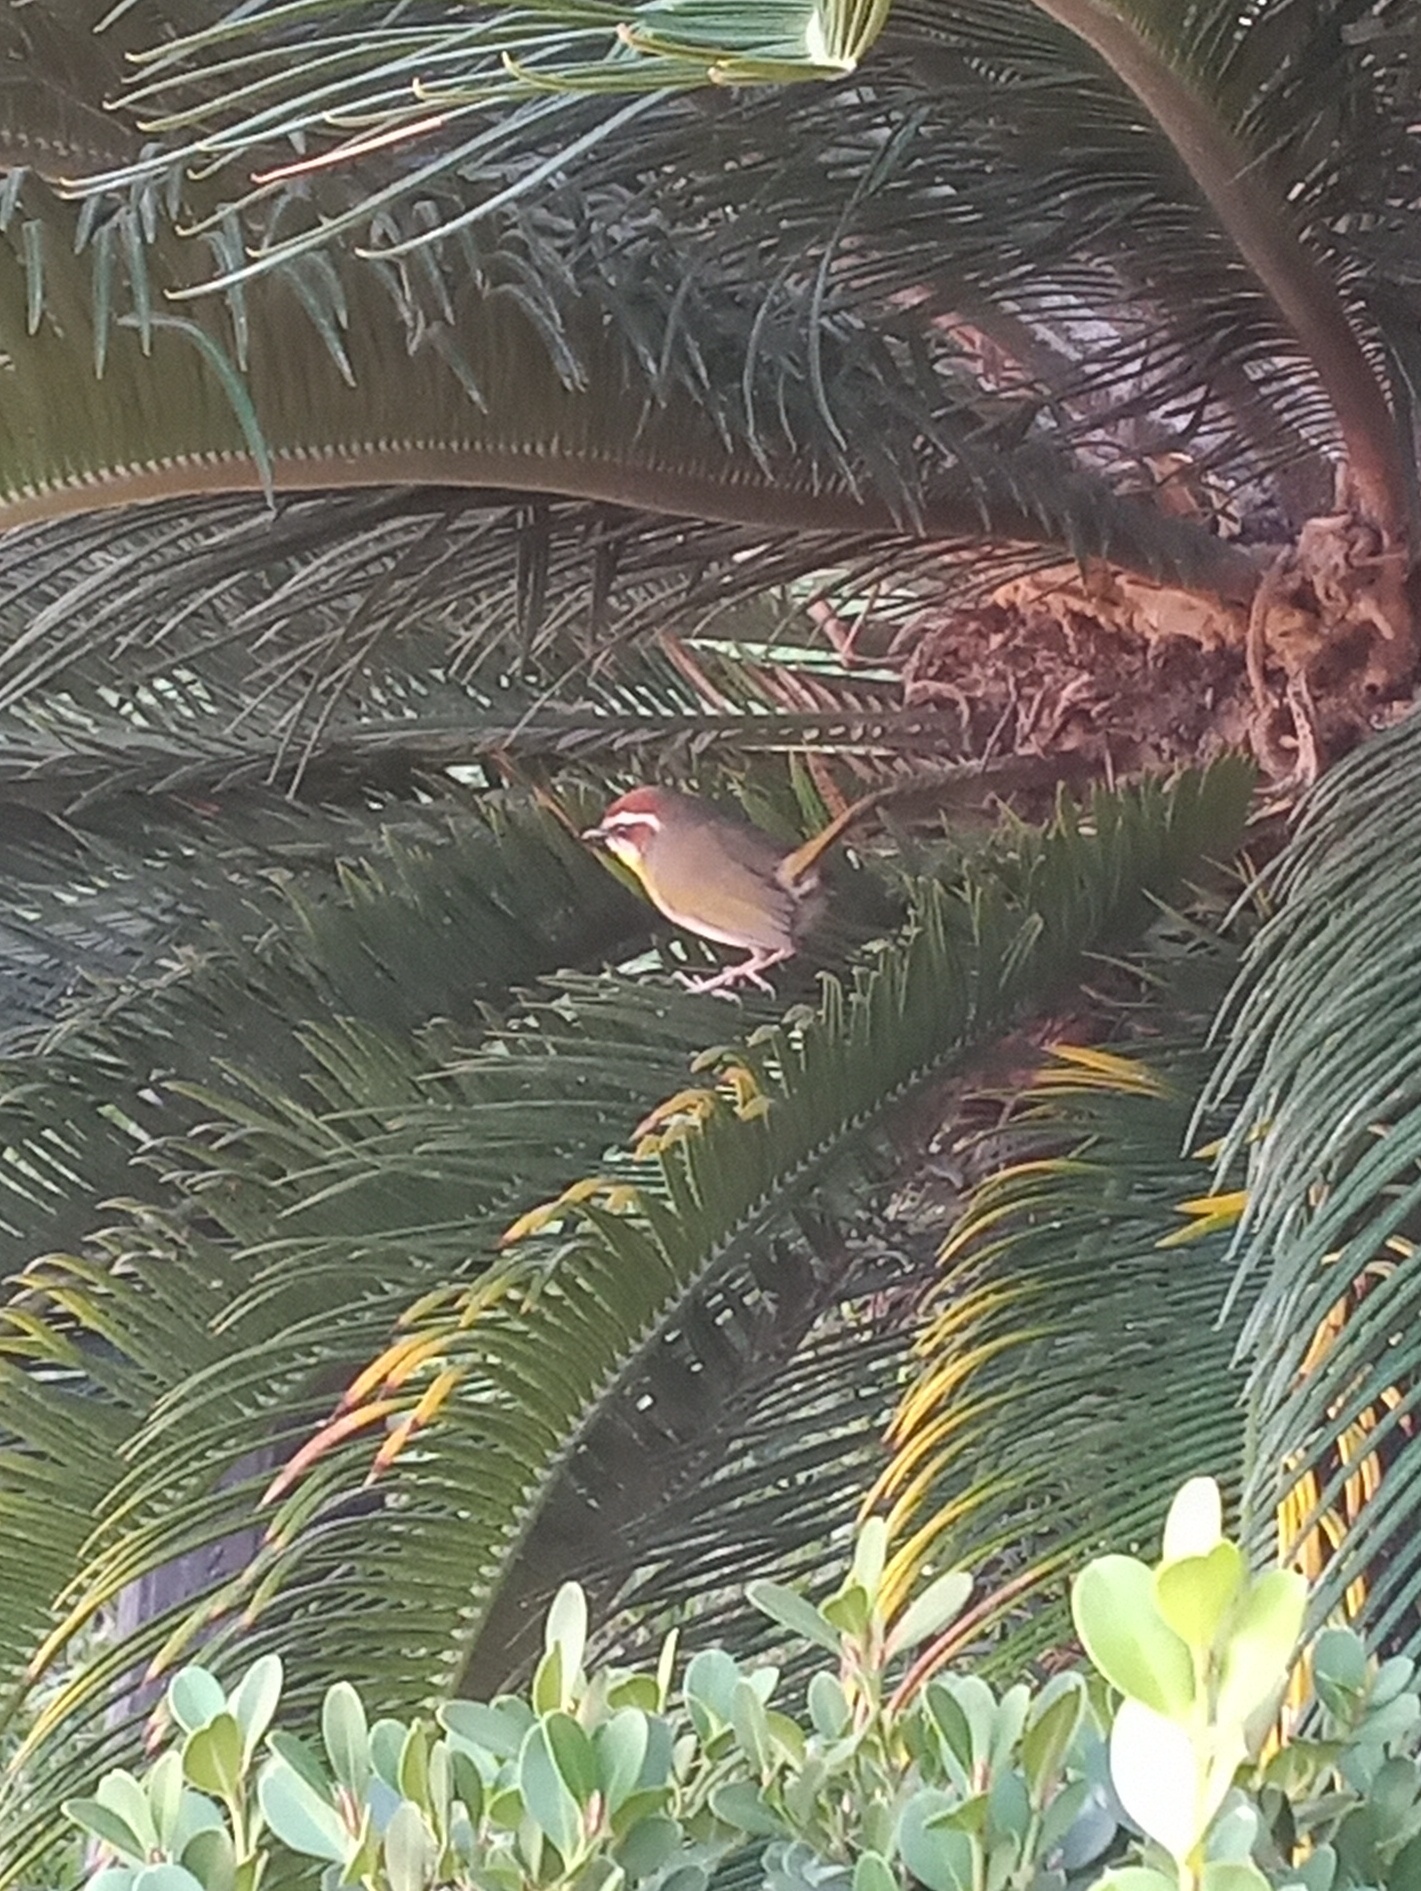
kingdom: Animalia
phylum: Chordata
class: Aves
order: Passeriformes
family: Parulidae
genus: Basileuterus
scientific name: Basileuterus rufifrons
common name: Rufous-capped warbler
